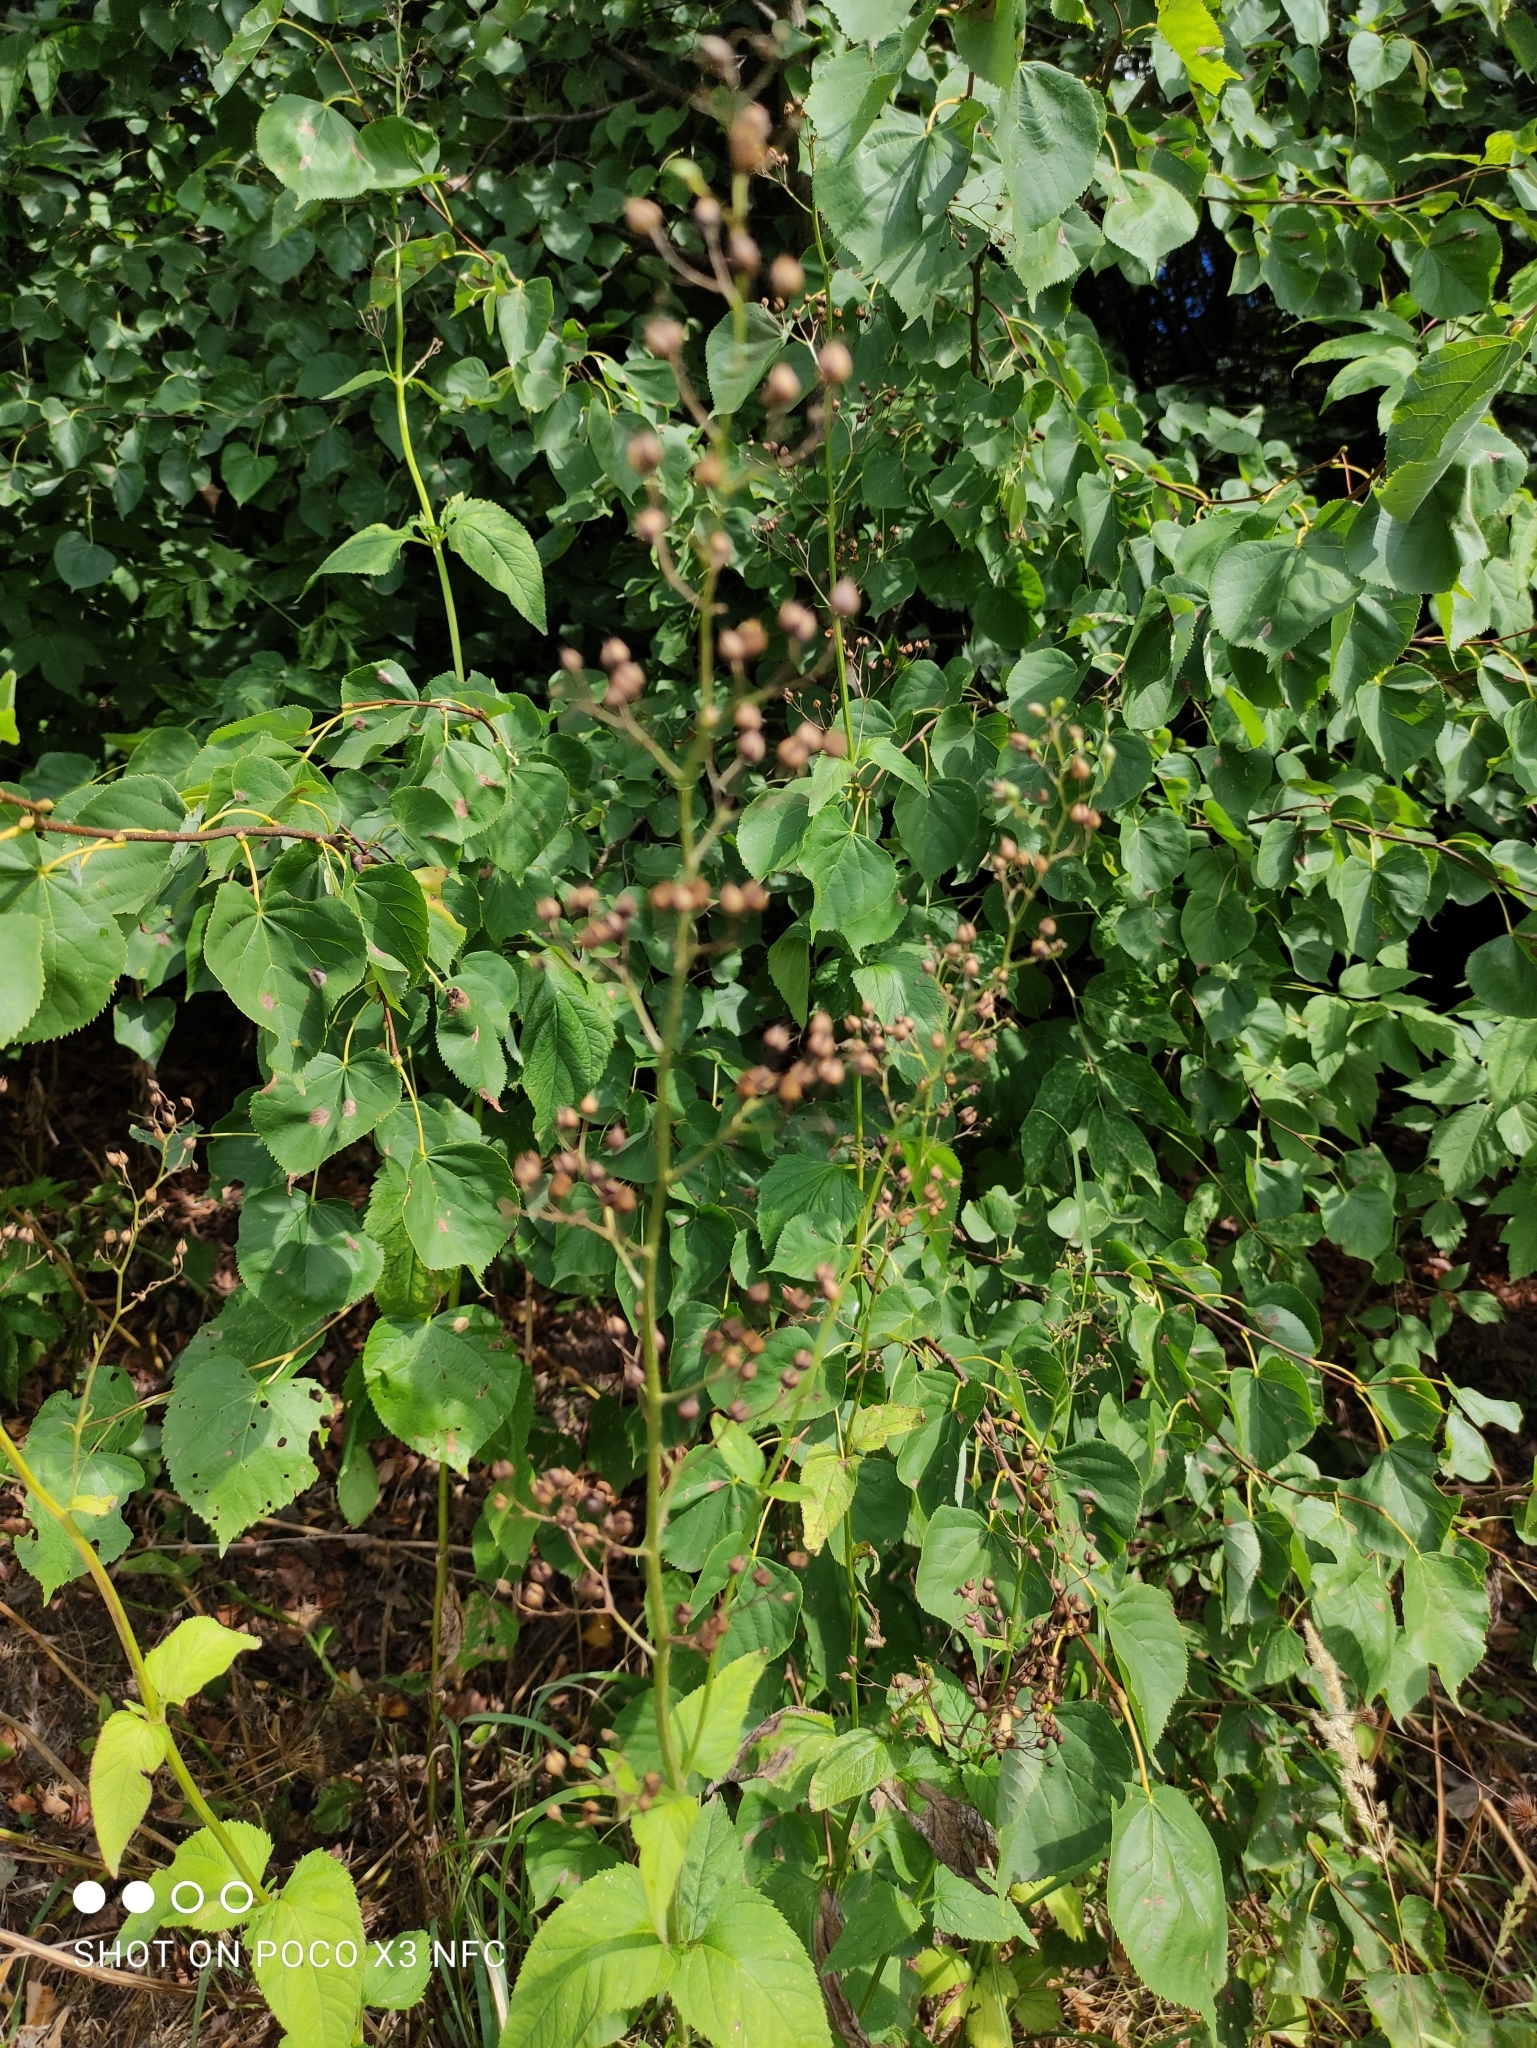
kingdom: Plantae
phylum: Tracheophyta
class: Magnoliopsida
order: Lamiales
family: Scrophulariaceae
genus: Scrophularia
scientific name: Scrophularia nodosa
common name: Common figwort
